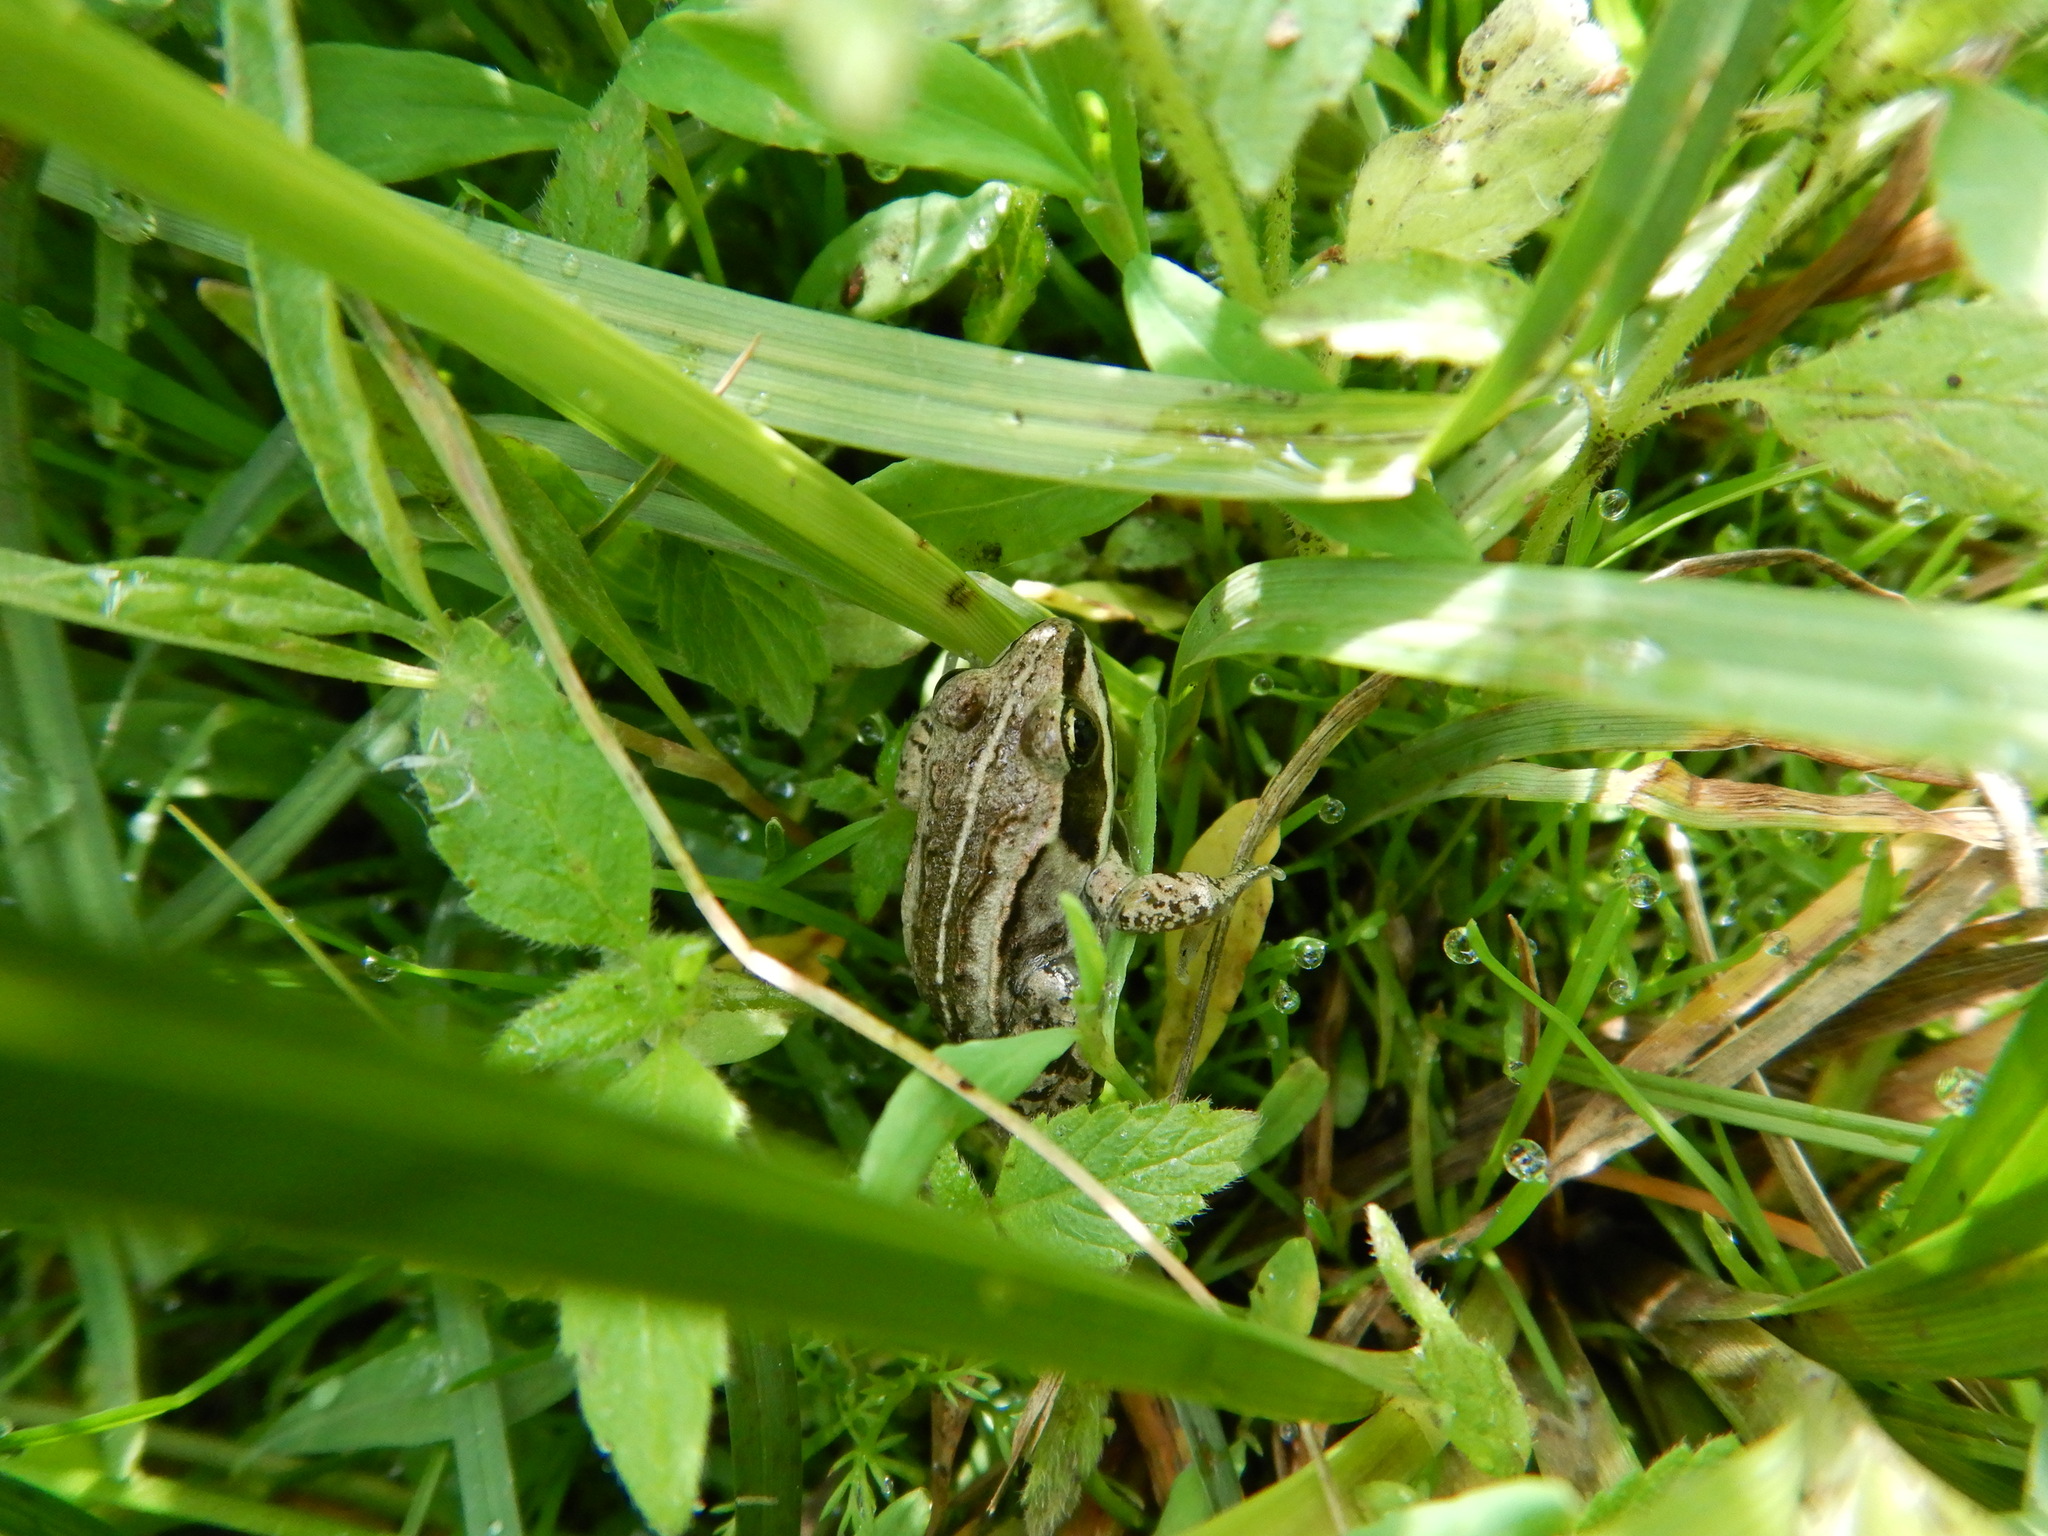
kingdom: Animalia
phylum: Chordata
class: Amphibia
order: Anura
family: Ranidae
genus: Lithobates
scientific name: Lithobates sylvaticus
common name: Wood frog
